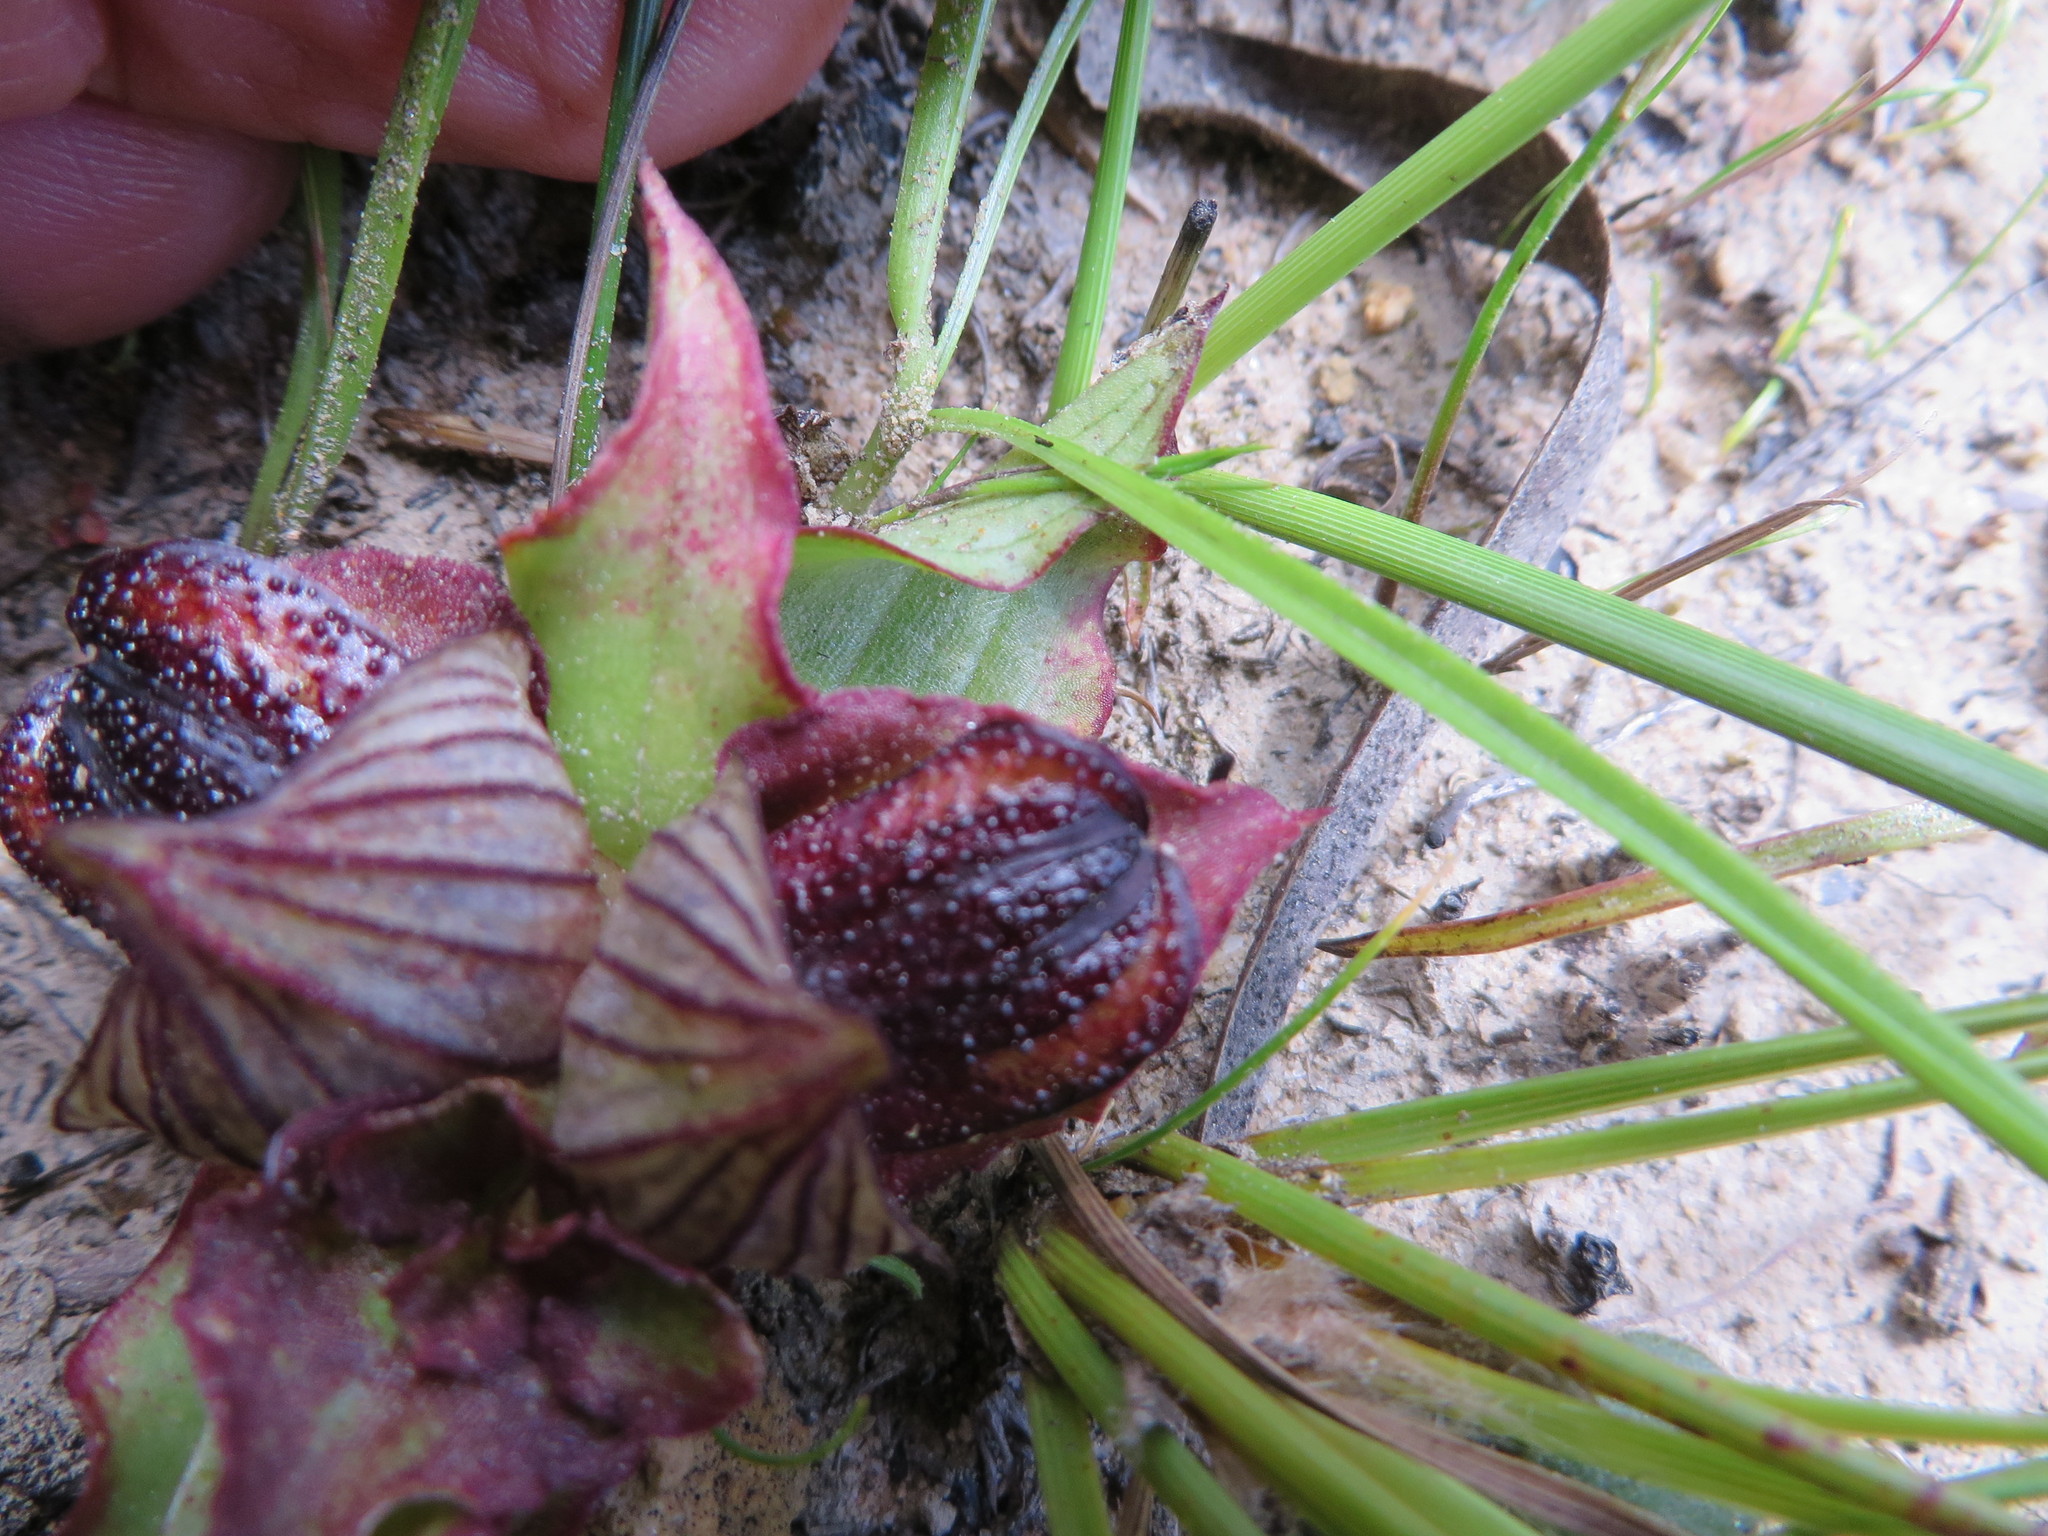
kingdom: Plantae
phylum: Tracheophyta
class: Liliopsida
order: Asparagales
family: Orchidaceae
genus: Satyrium
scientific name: Satyrium pumilum
